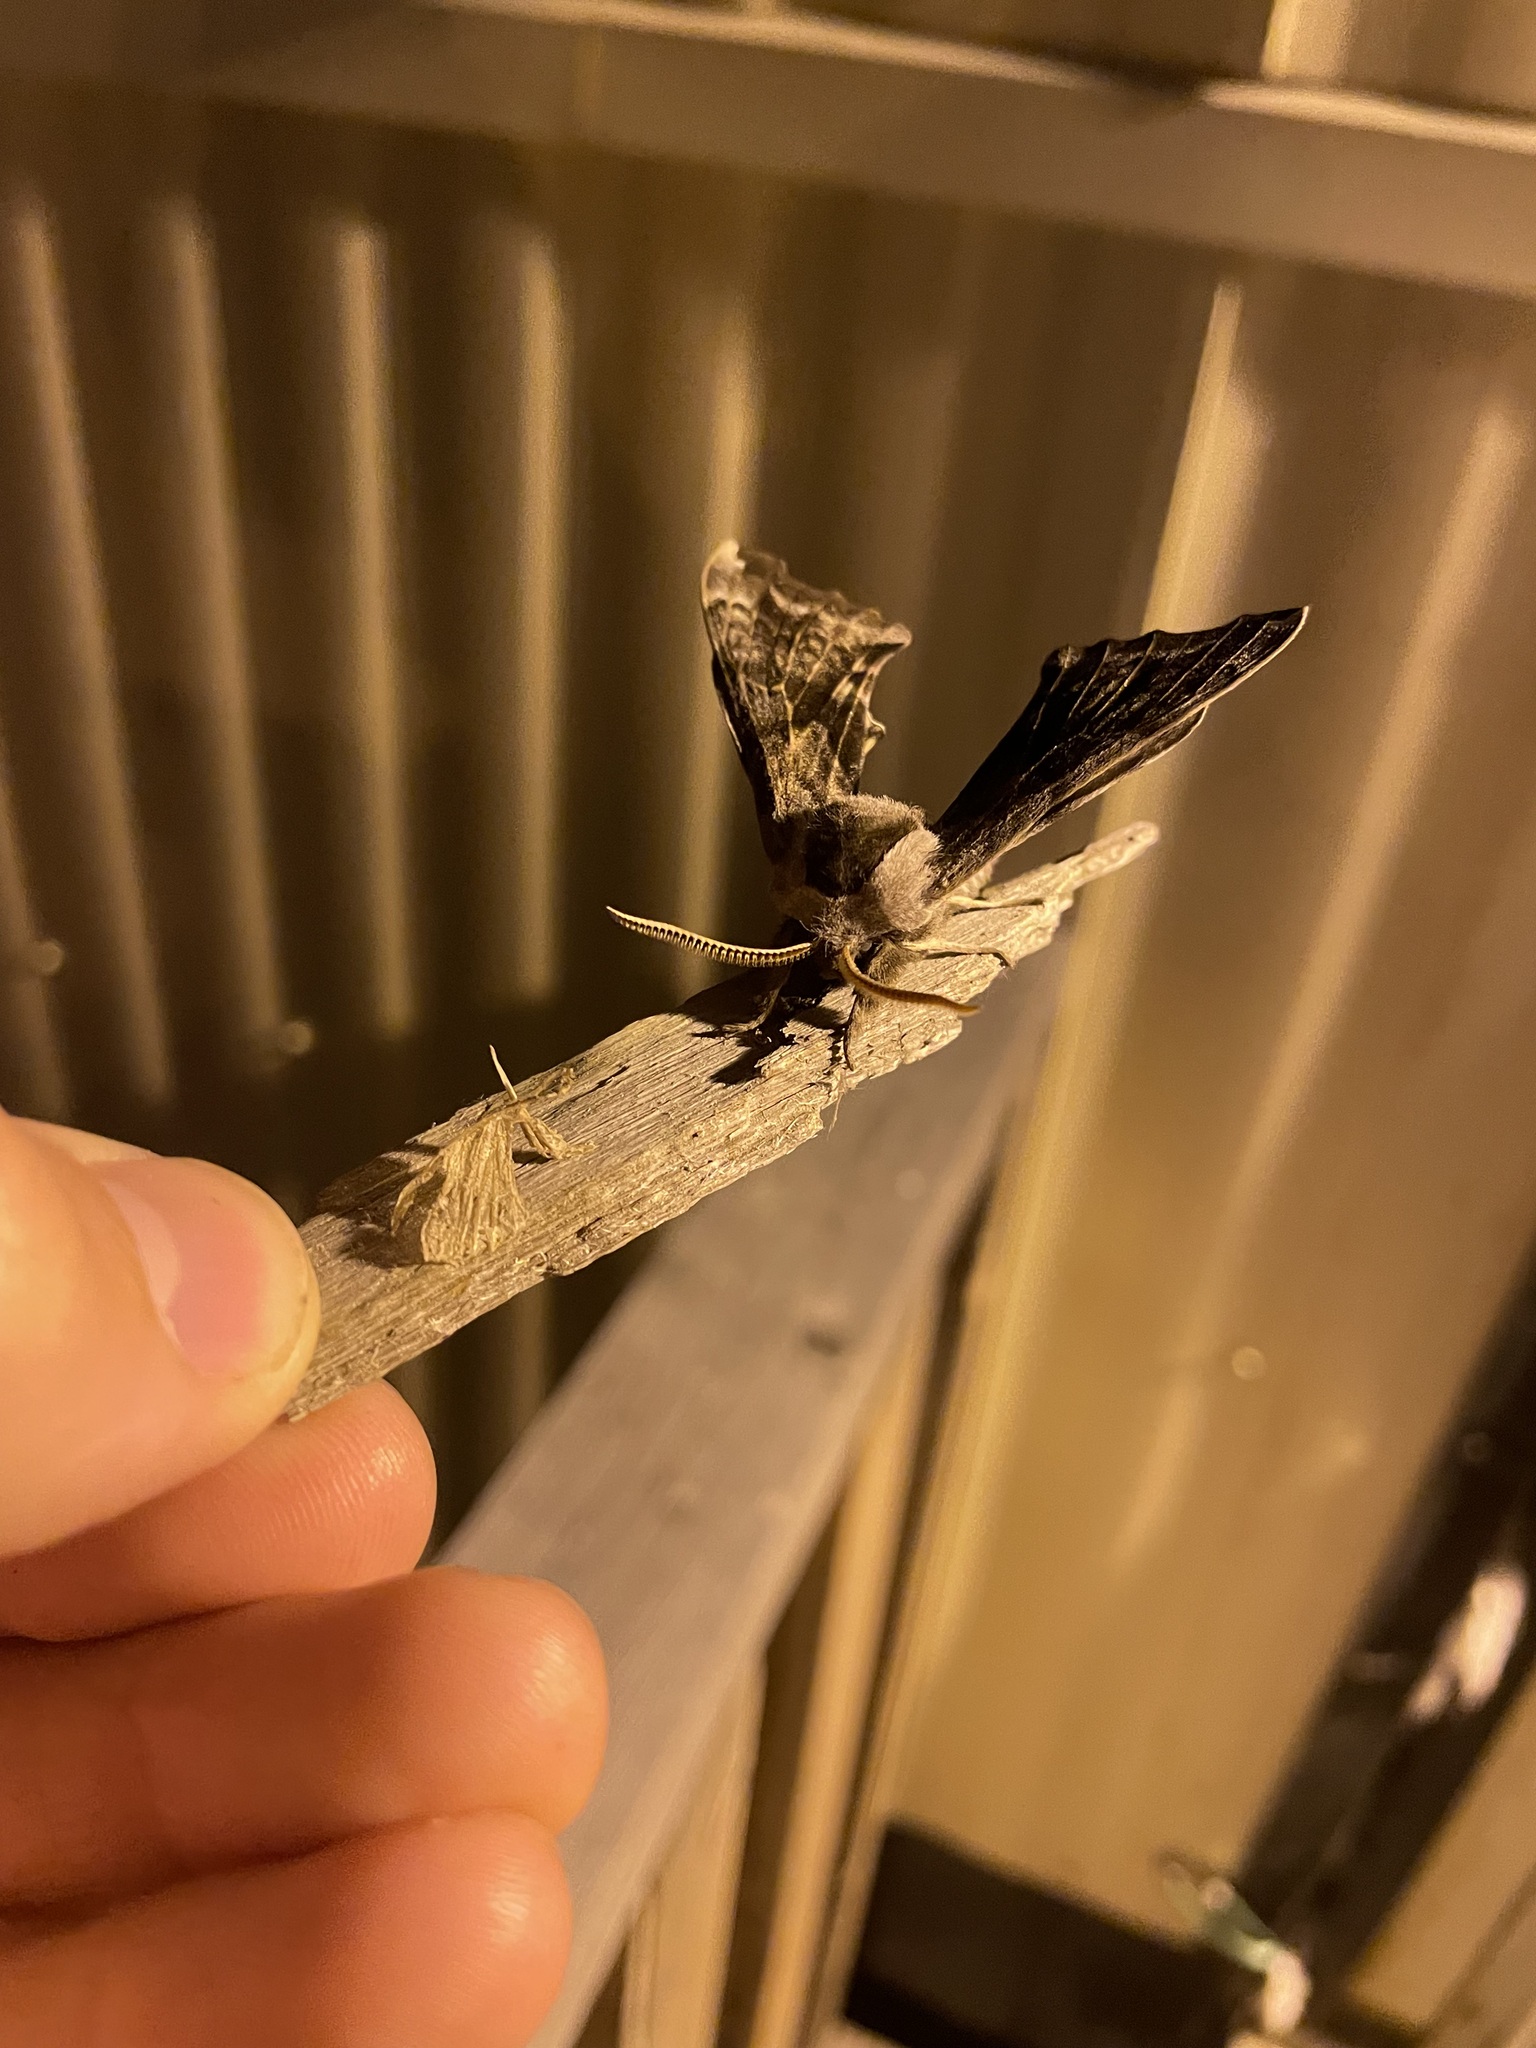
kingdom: Animalia
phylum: Arthropoda
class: Insecta
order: Lepidoptera
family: Sphingidae
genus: Smerinthus
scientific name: Smerinthus cerisyi
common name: Cerisy's sphinx moth
